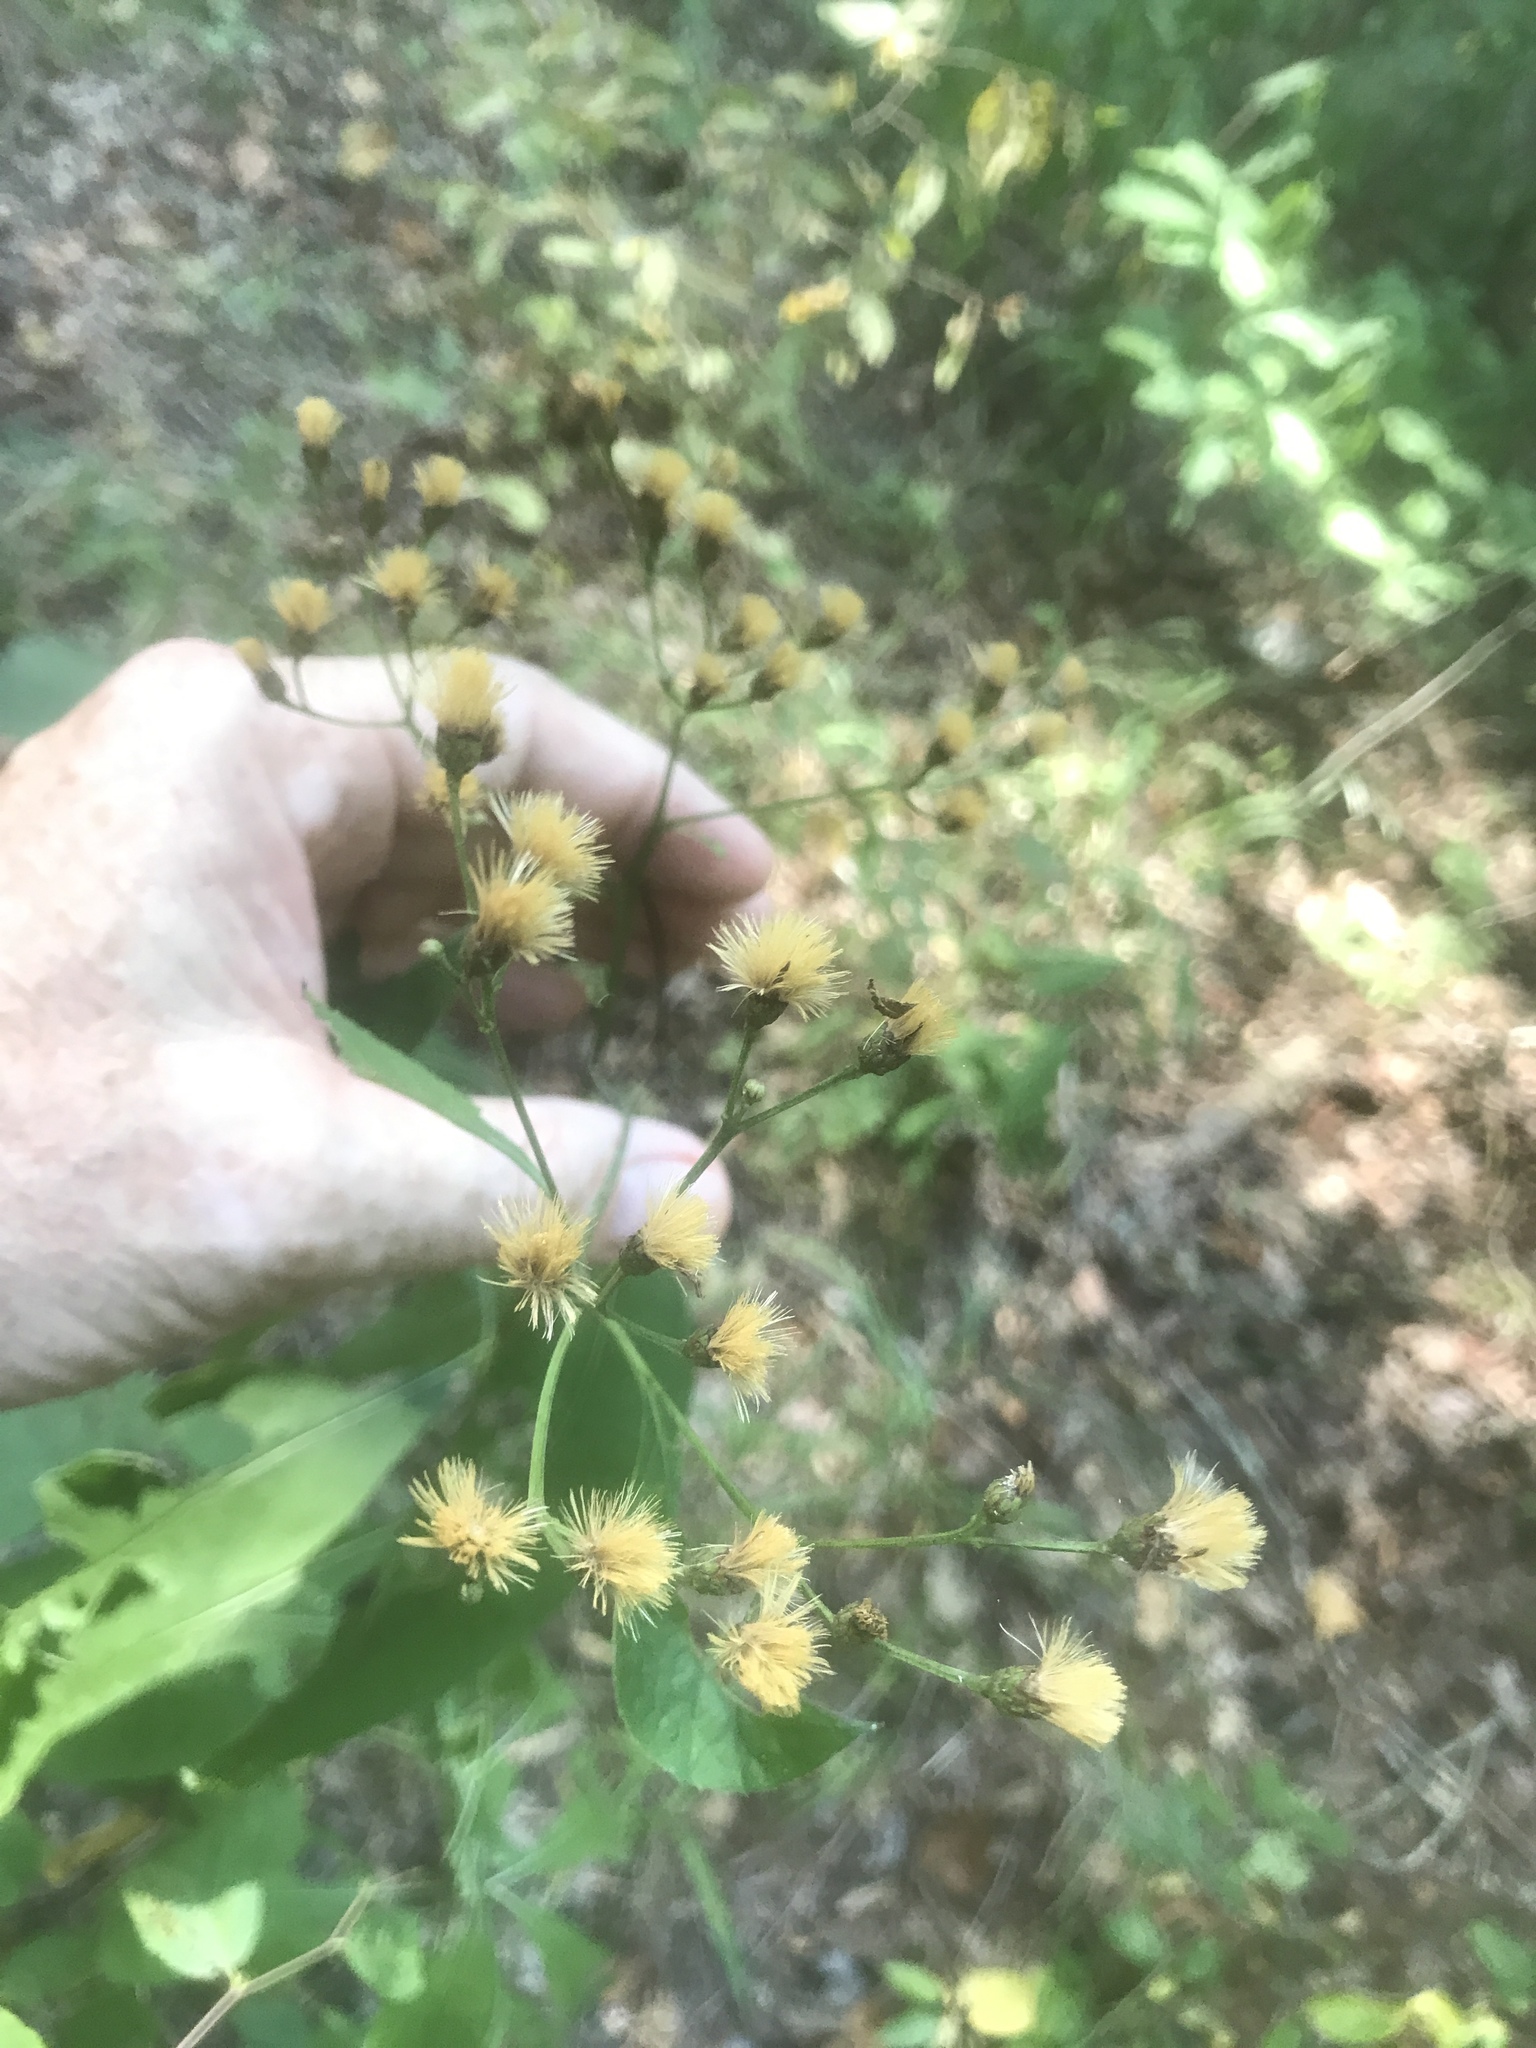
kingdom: Plantae
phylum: Tracheophyta
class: Magnoliopsida
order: Asterales
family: Asteraceae
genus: Vernonia
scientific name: Vernonia flaccidifolia
